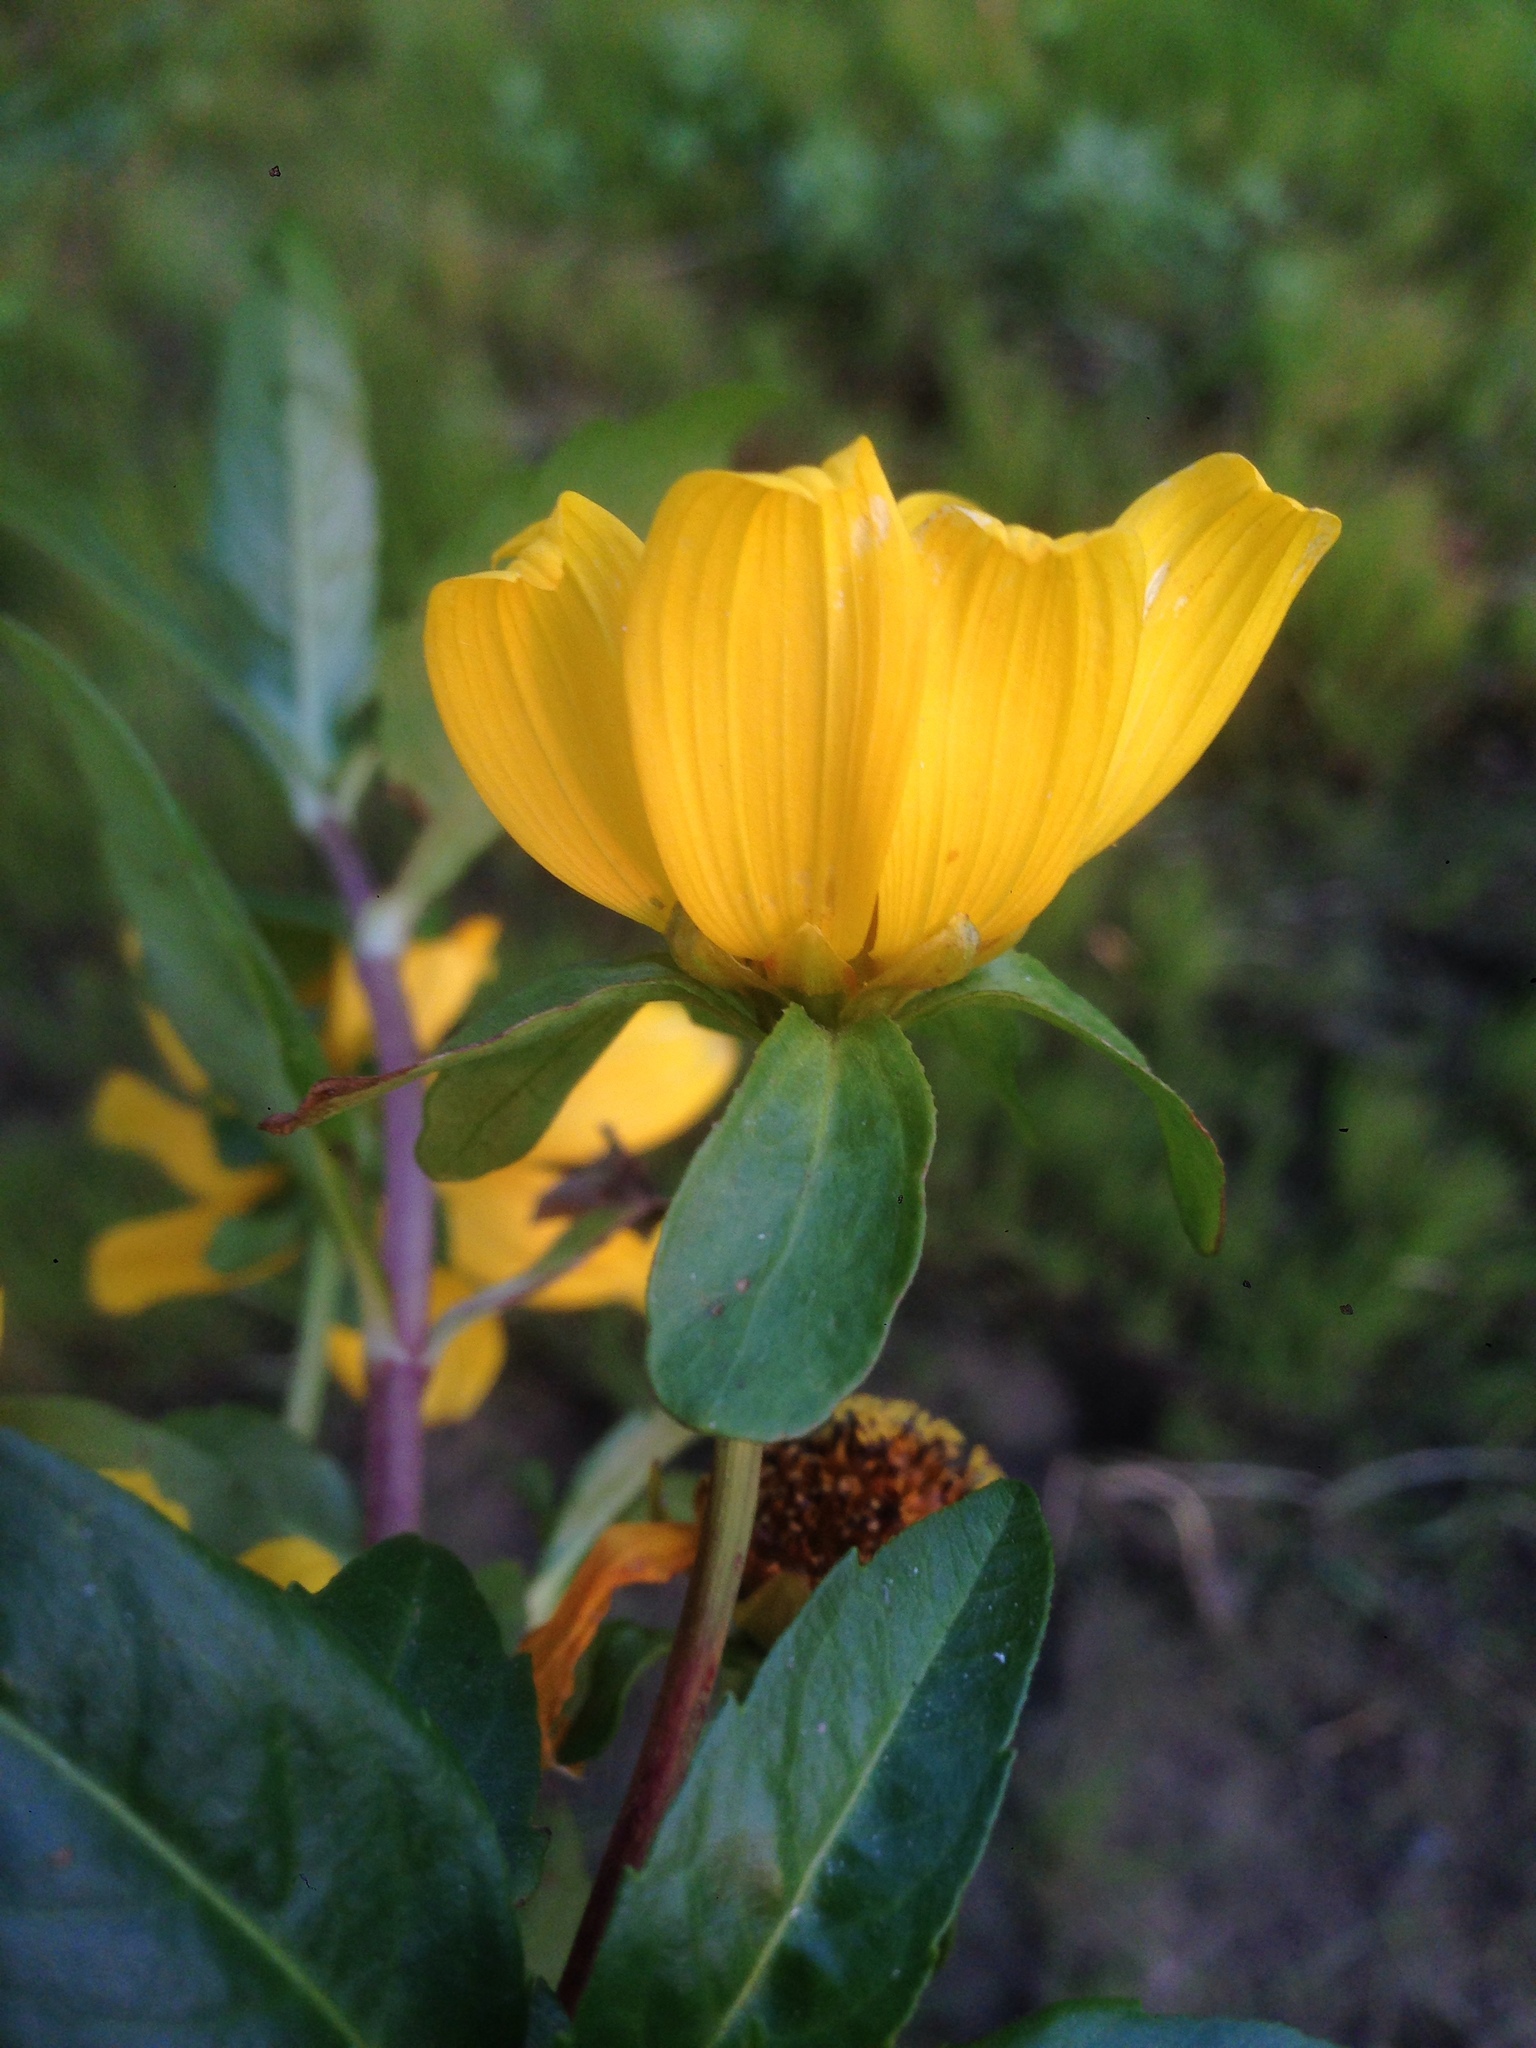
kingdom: Plantae
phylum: Tracheophyta
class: Magnoliopsida
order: Asterales
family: Asteraceae
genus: Bidens
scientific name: Bidens laevis
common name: Larger bur-marigold
